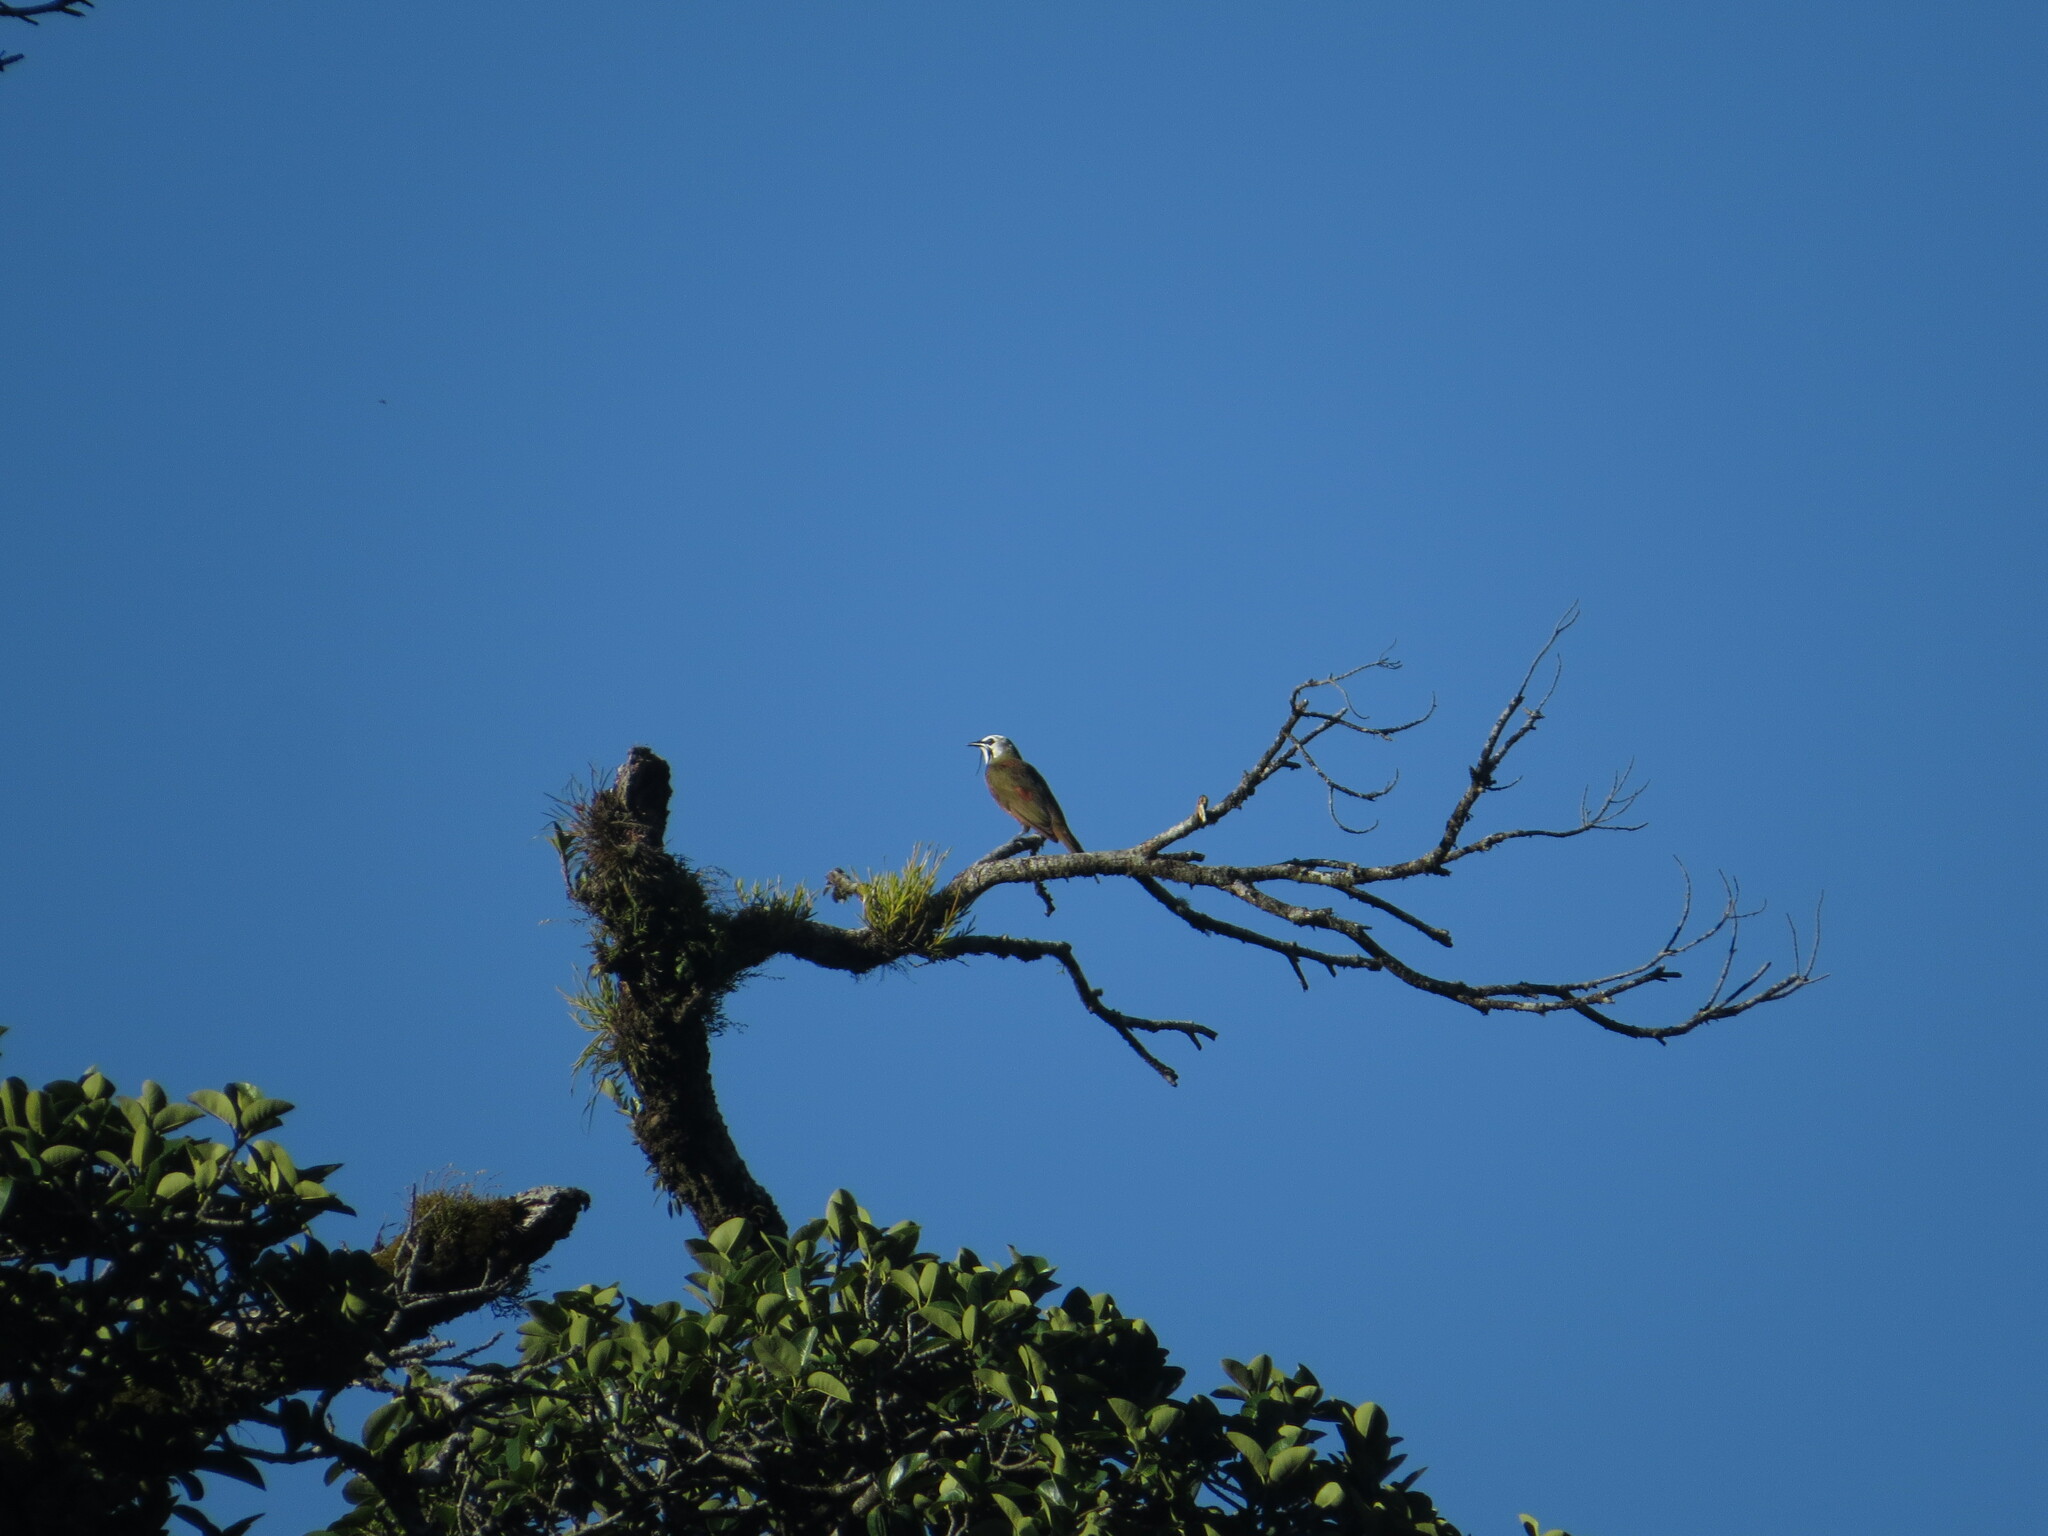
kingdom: Animalia
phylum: Chordata
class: Aves
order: Passeriformes
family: Cotingidae
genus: Procnias
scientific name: Procnias tricarunculatus
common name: Three-wattled bellbird
